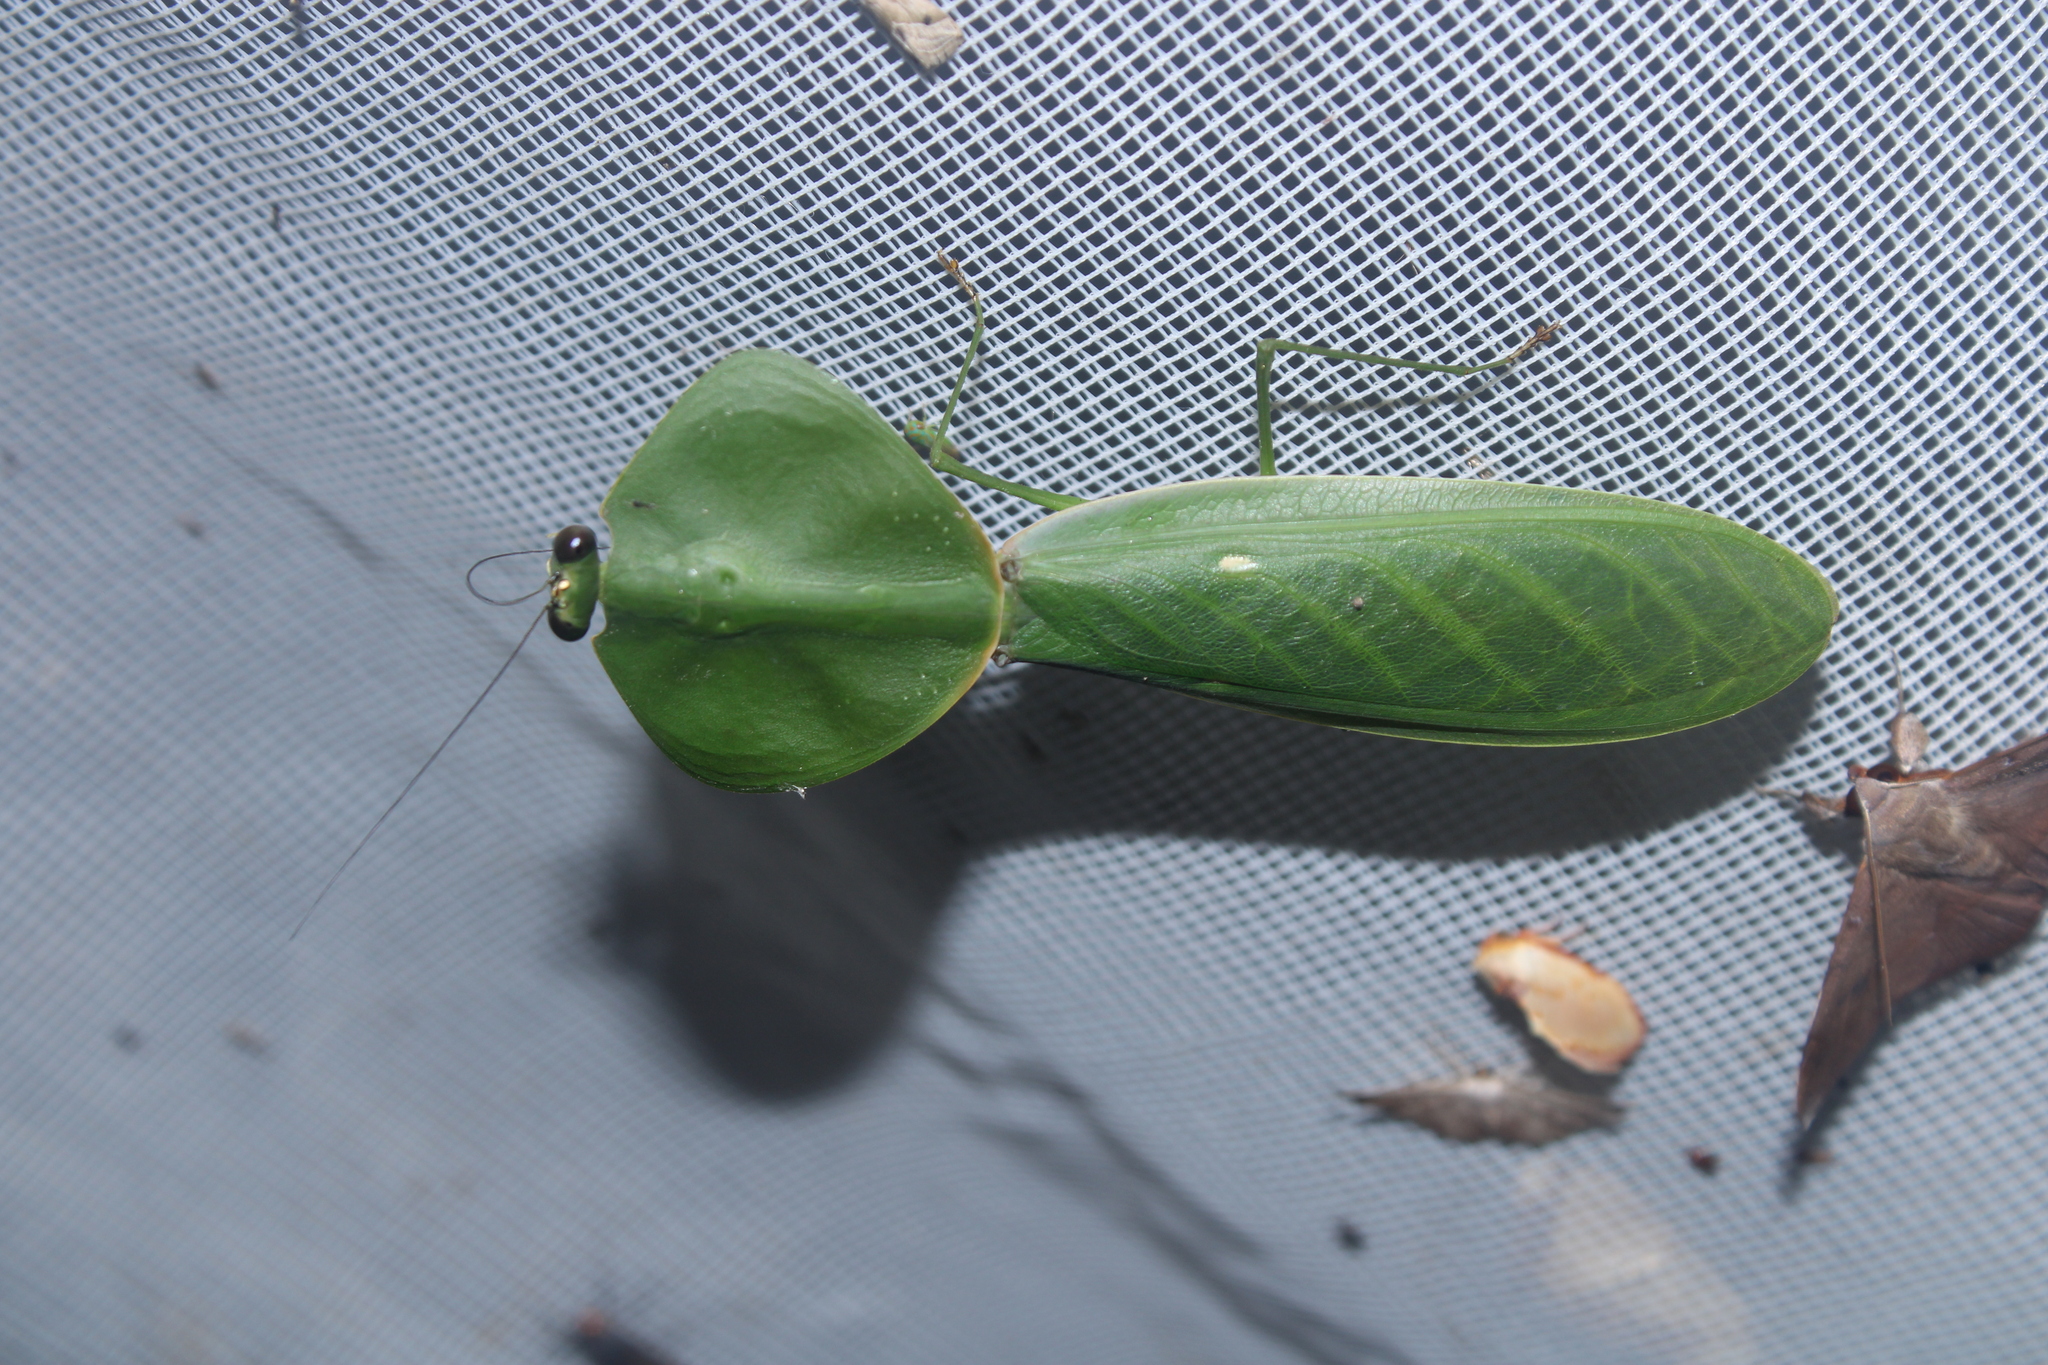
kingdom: Animalia
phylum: Arthropoda
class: Insecta
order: Mantodea
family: Mantidae
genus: Choeradodis
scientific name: Choeradodis rhombicollis
